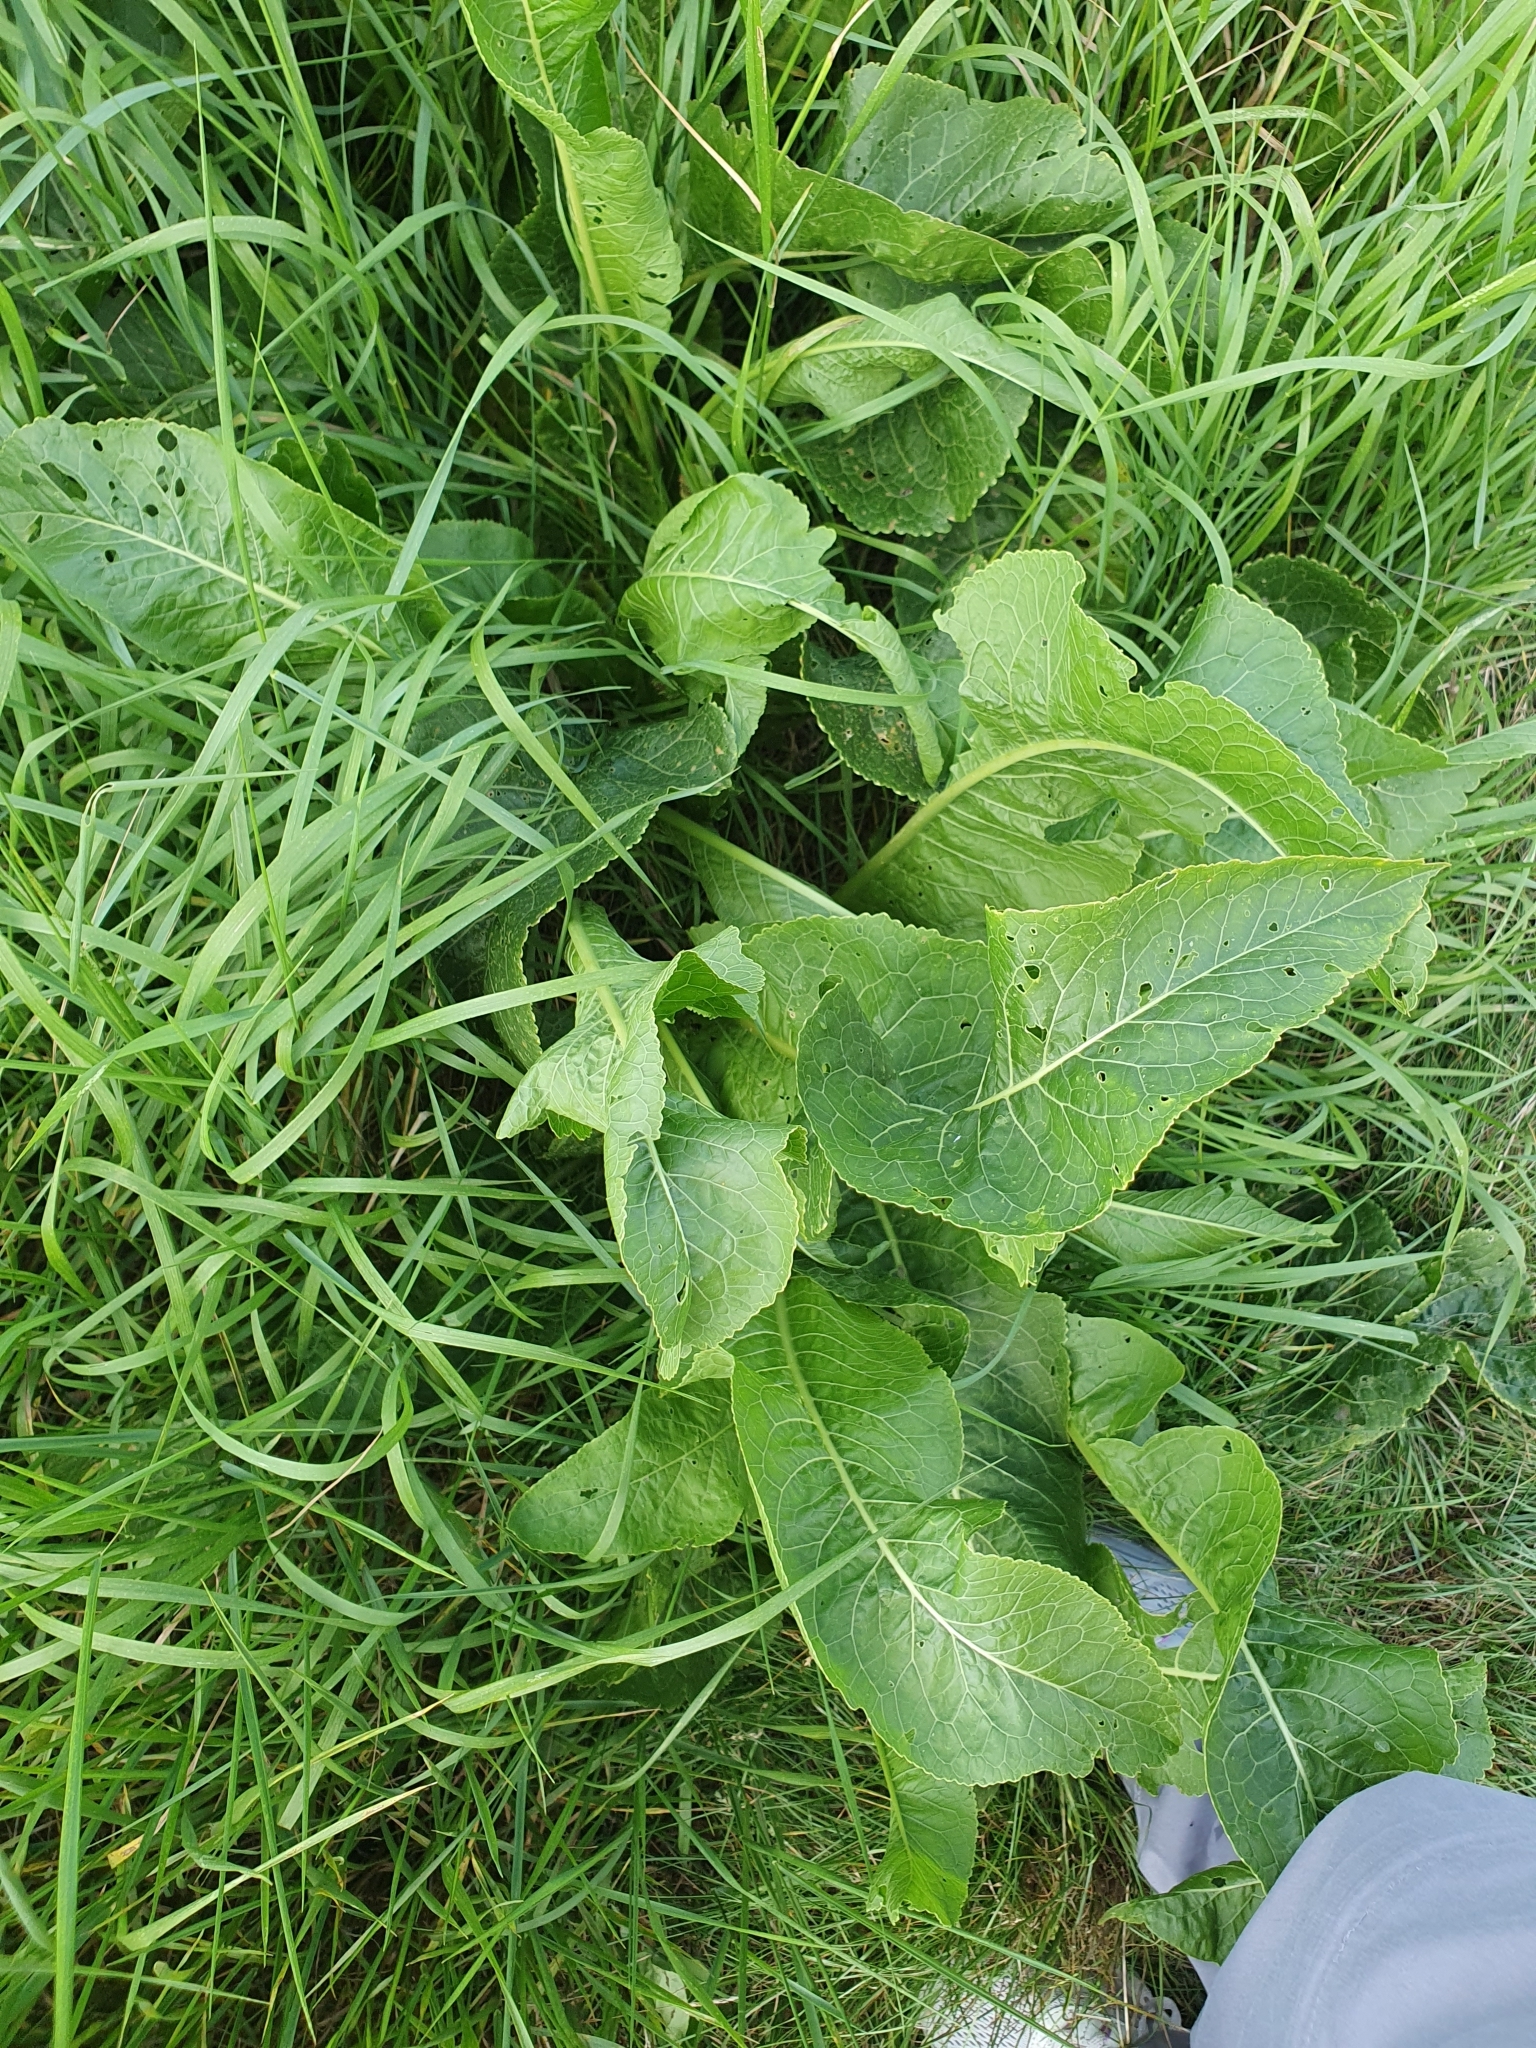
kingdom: Plantae
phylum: Tracheophyta
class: Magnoliopsida
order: Brassicales
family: Brassicaceae
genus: Armoracia
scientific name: Armoracia rusticana
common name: Horseradish
